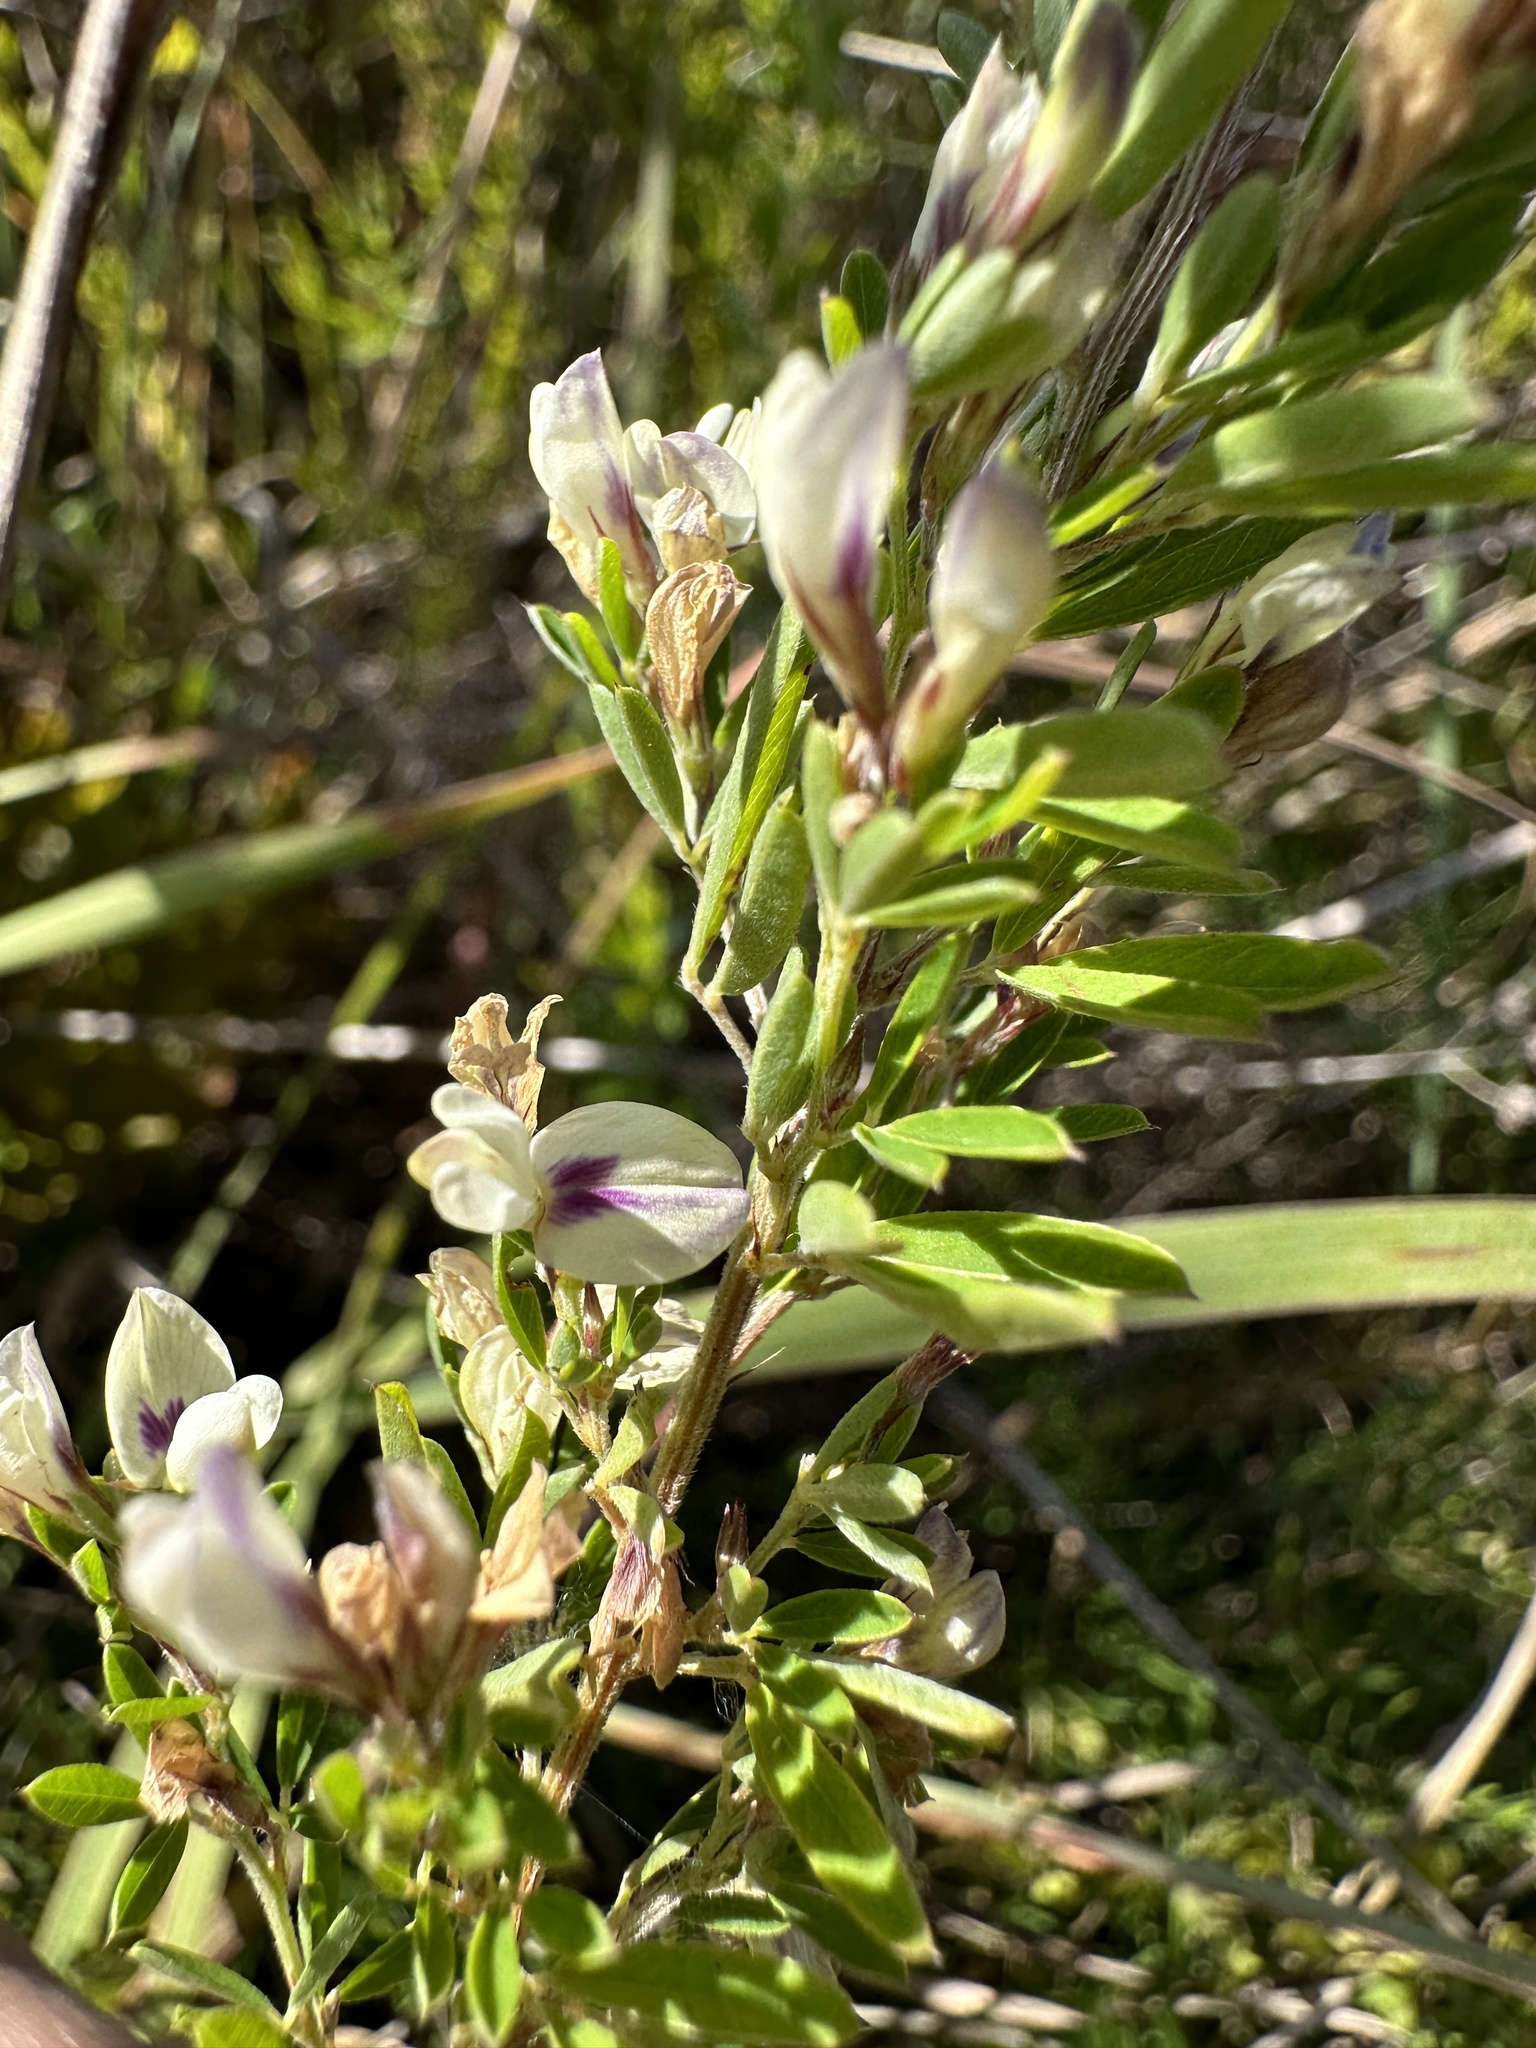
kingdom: Plantae
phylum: Tracheophyta
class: Magnoliopsida
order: Fabales
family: Fabaceae
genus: Lespedeza
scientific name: Lespedeza cuneata
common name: Chinese bush-clover
